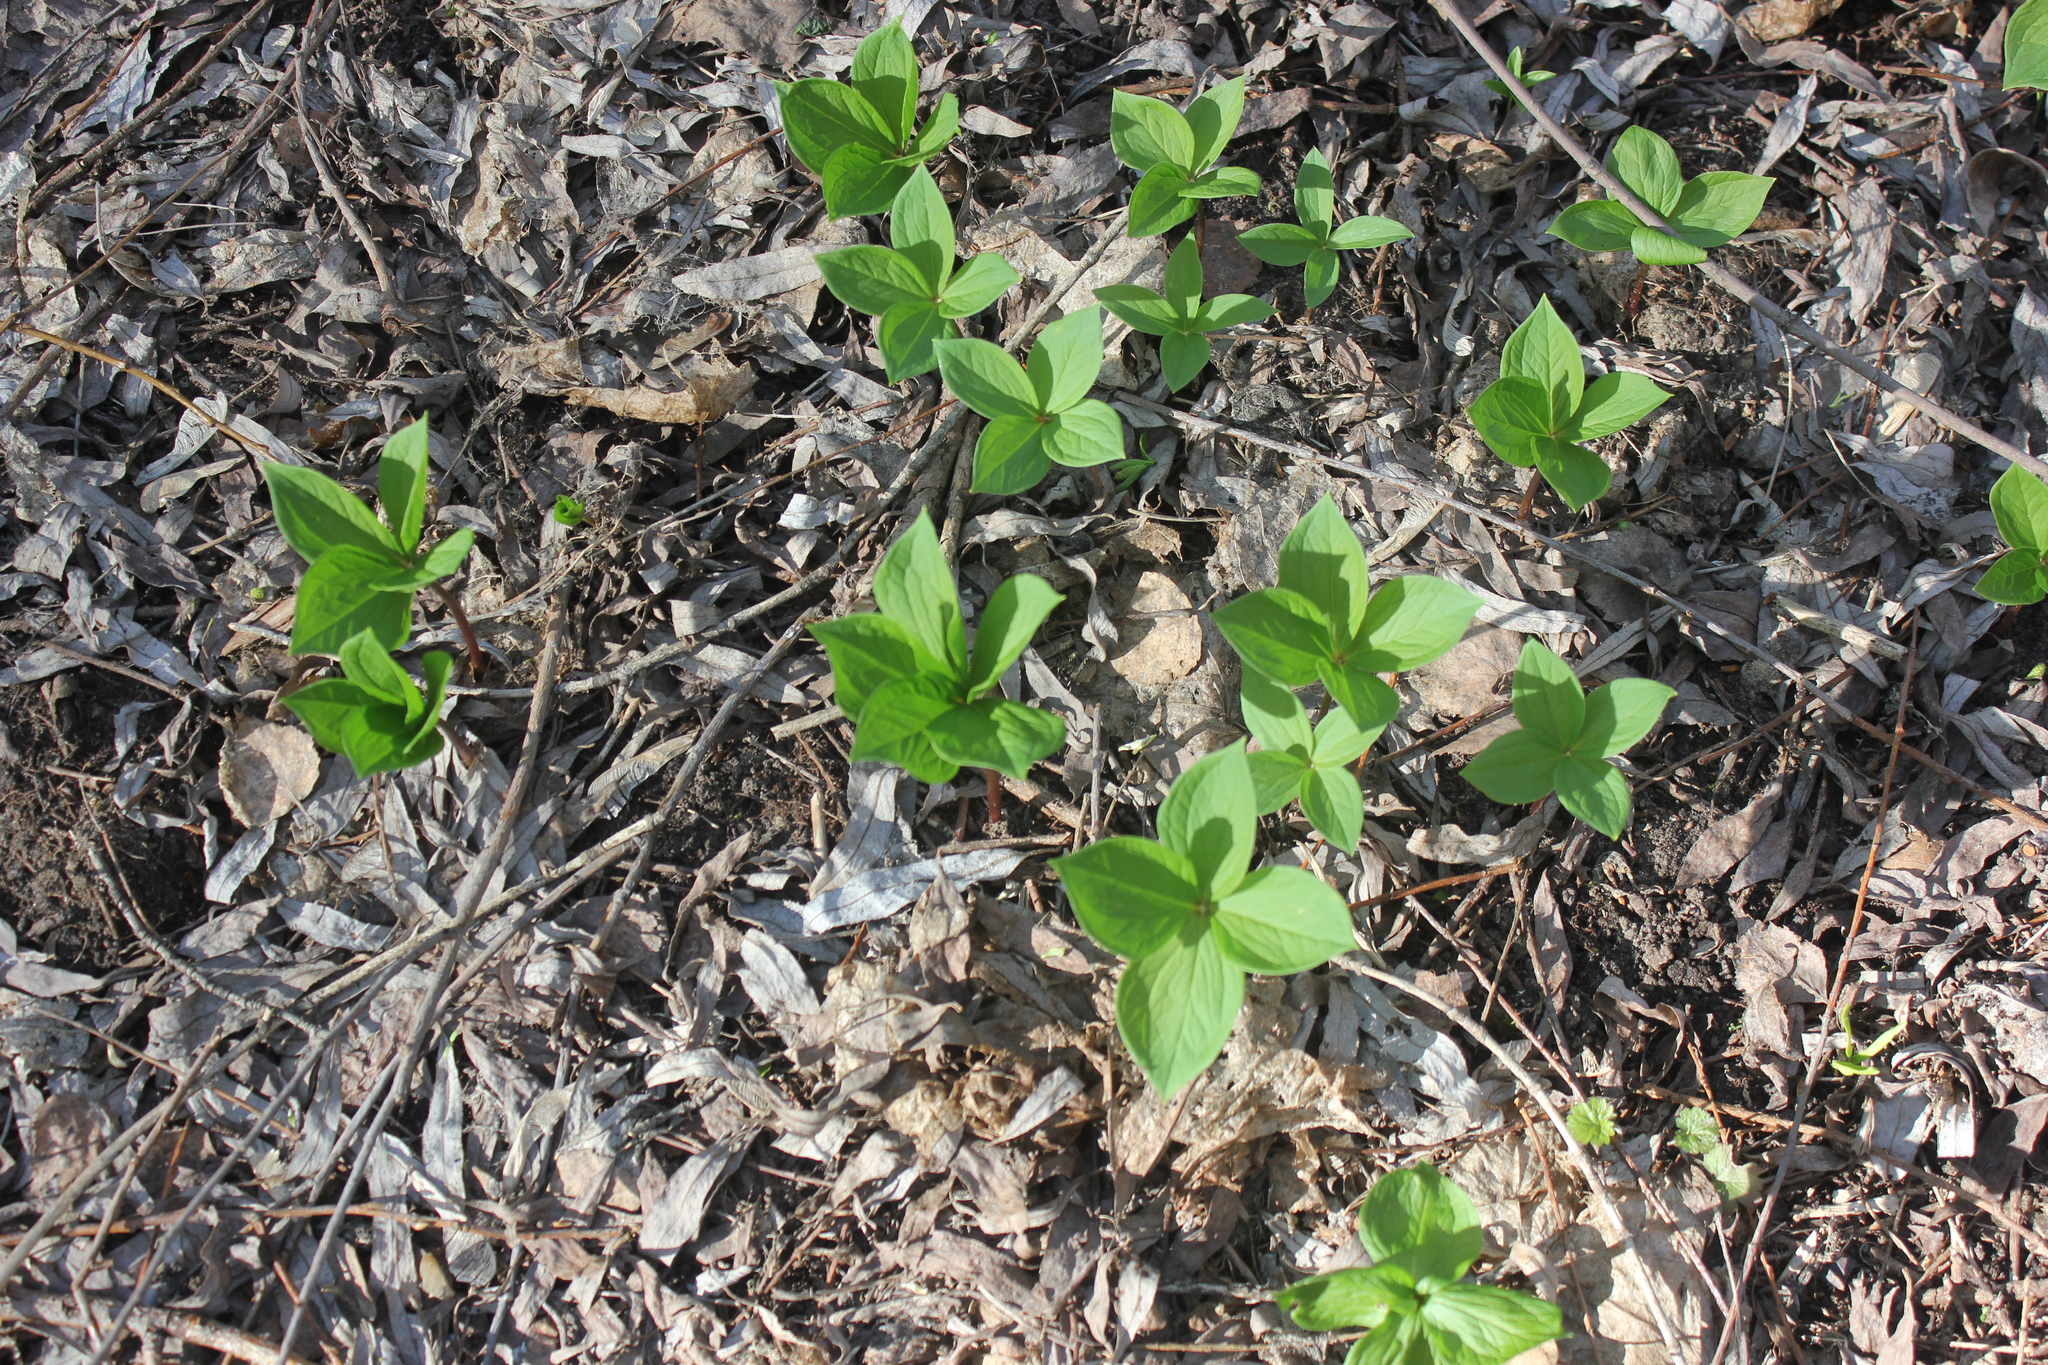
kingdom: Plantae
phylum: Tracheophyta
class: Liliopsida
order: Liliales
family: Melanthiaceae
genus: Paris
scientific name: Paris quadrifolia
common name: Herb-paris
